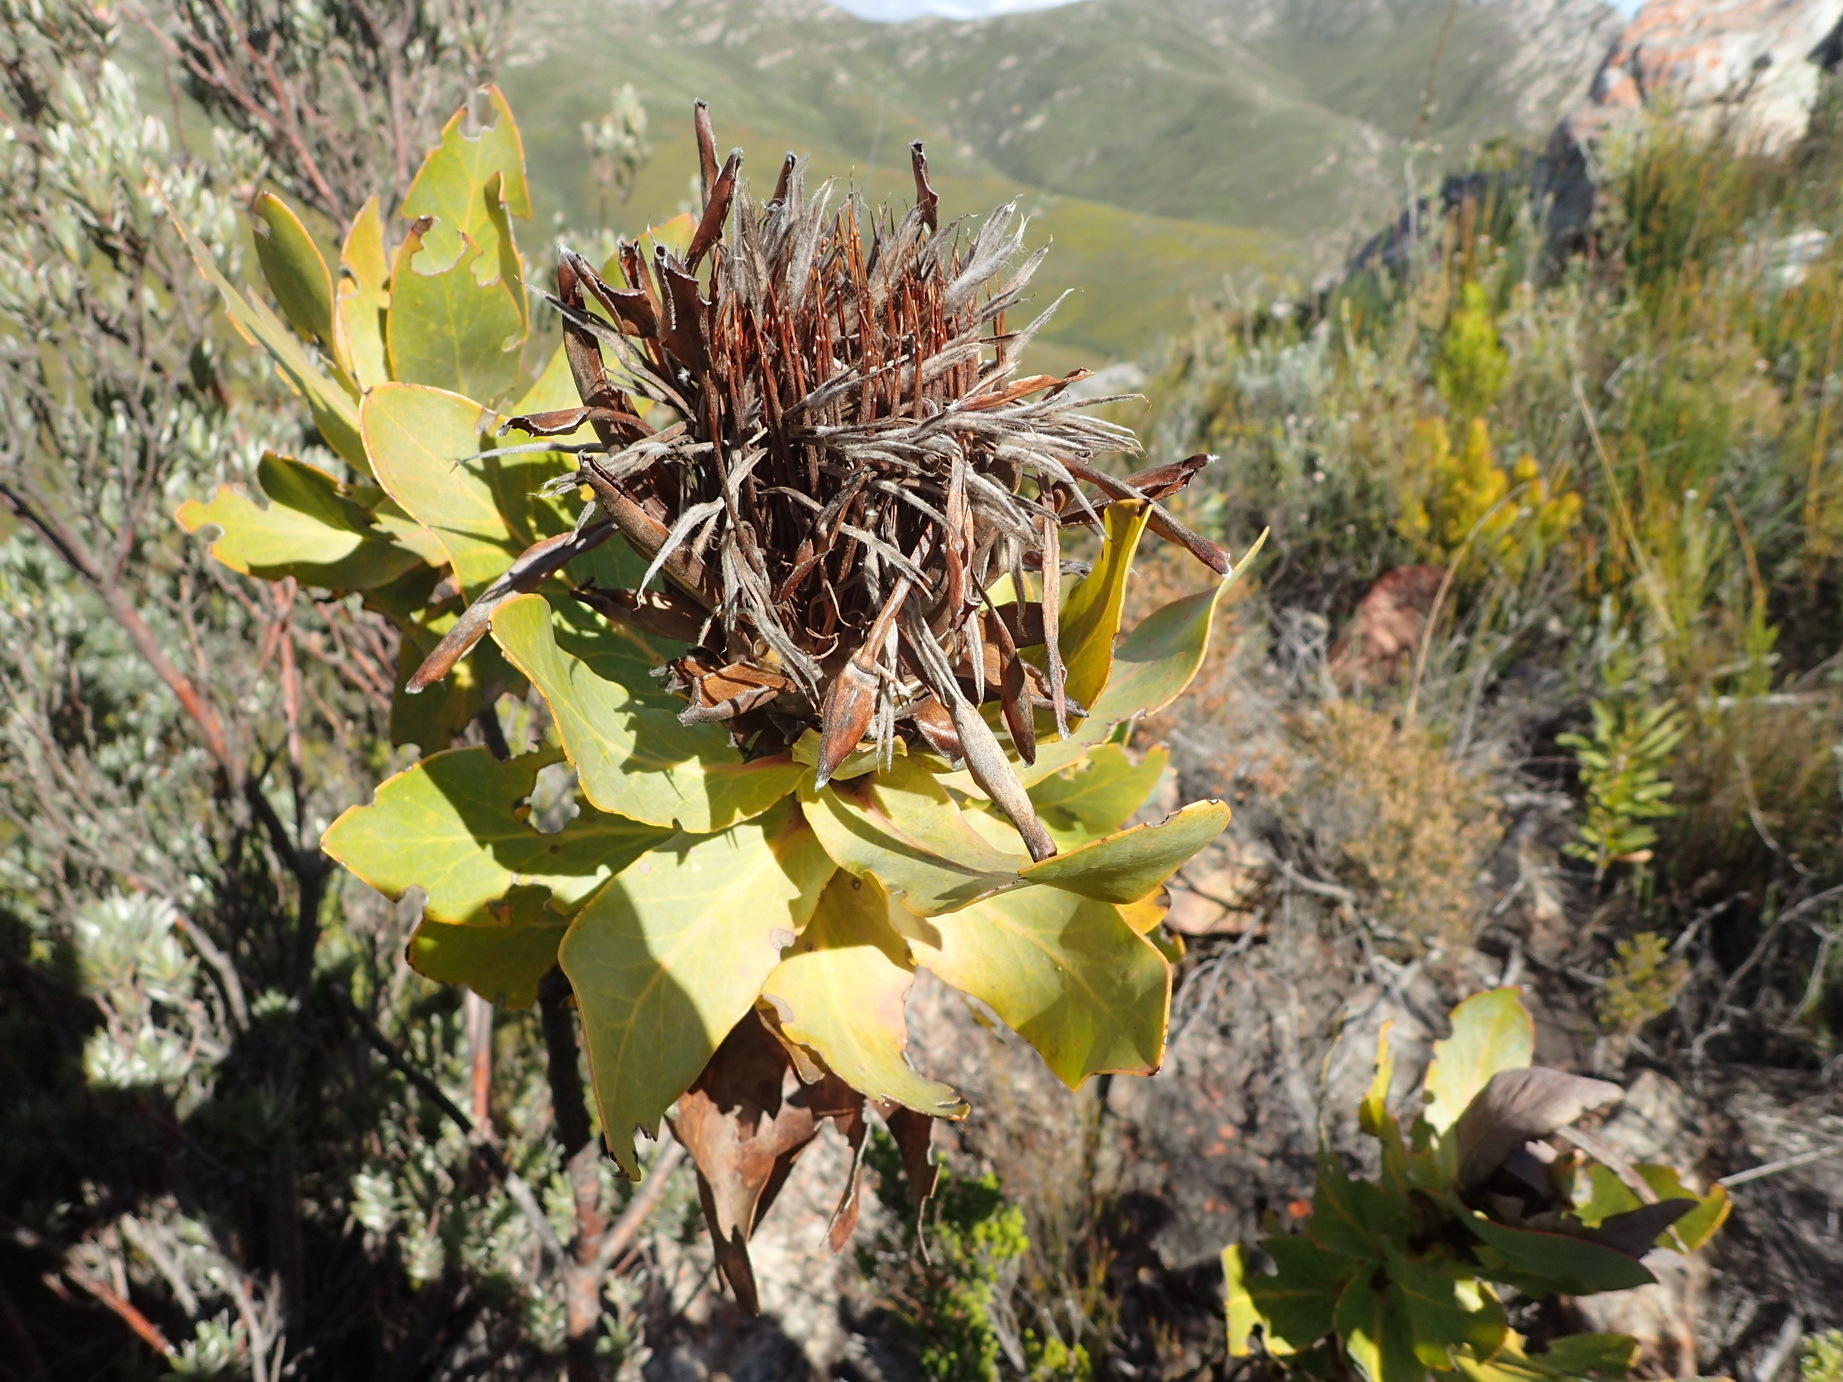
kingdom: Plantae
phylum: Tracheophyta
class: Magnoliopsida
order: Proteales
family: Proteaceae
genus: Protea
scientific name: Protea eximia
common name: Broad-leaved sugarbush
